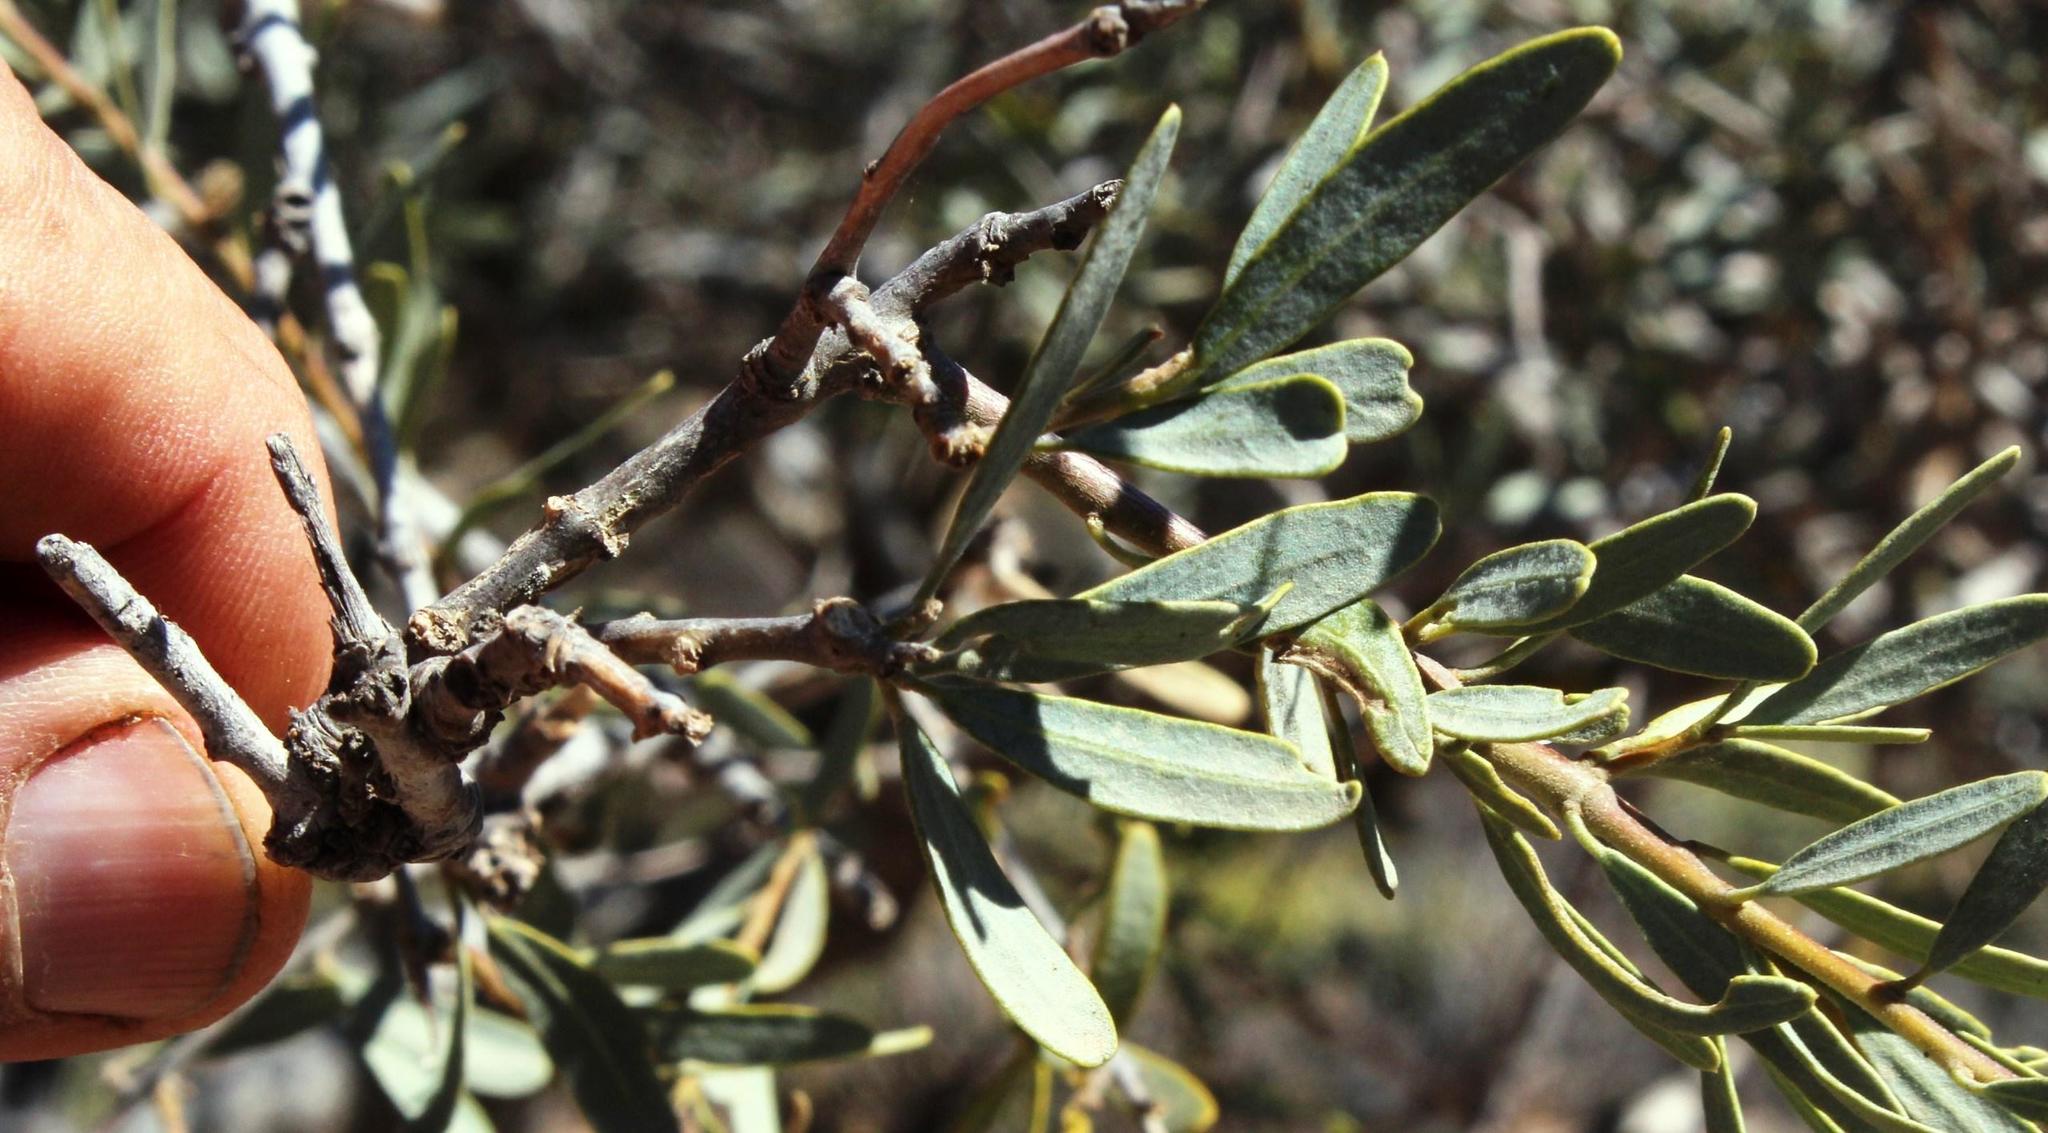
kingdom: Plantae
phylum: Tracheophyta
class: Magnoliopsida
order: Brassicales
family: Capparaceae
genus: Boscia
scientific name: Boscia albitrunca
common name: Caper bush
